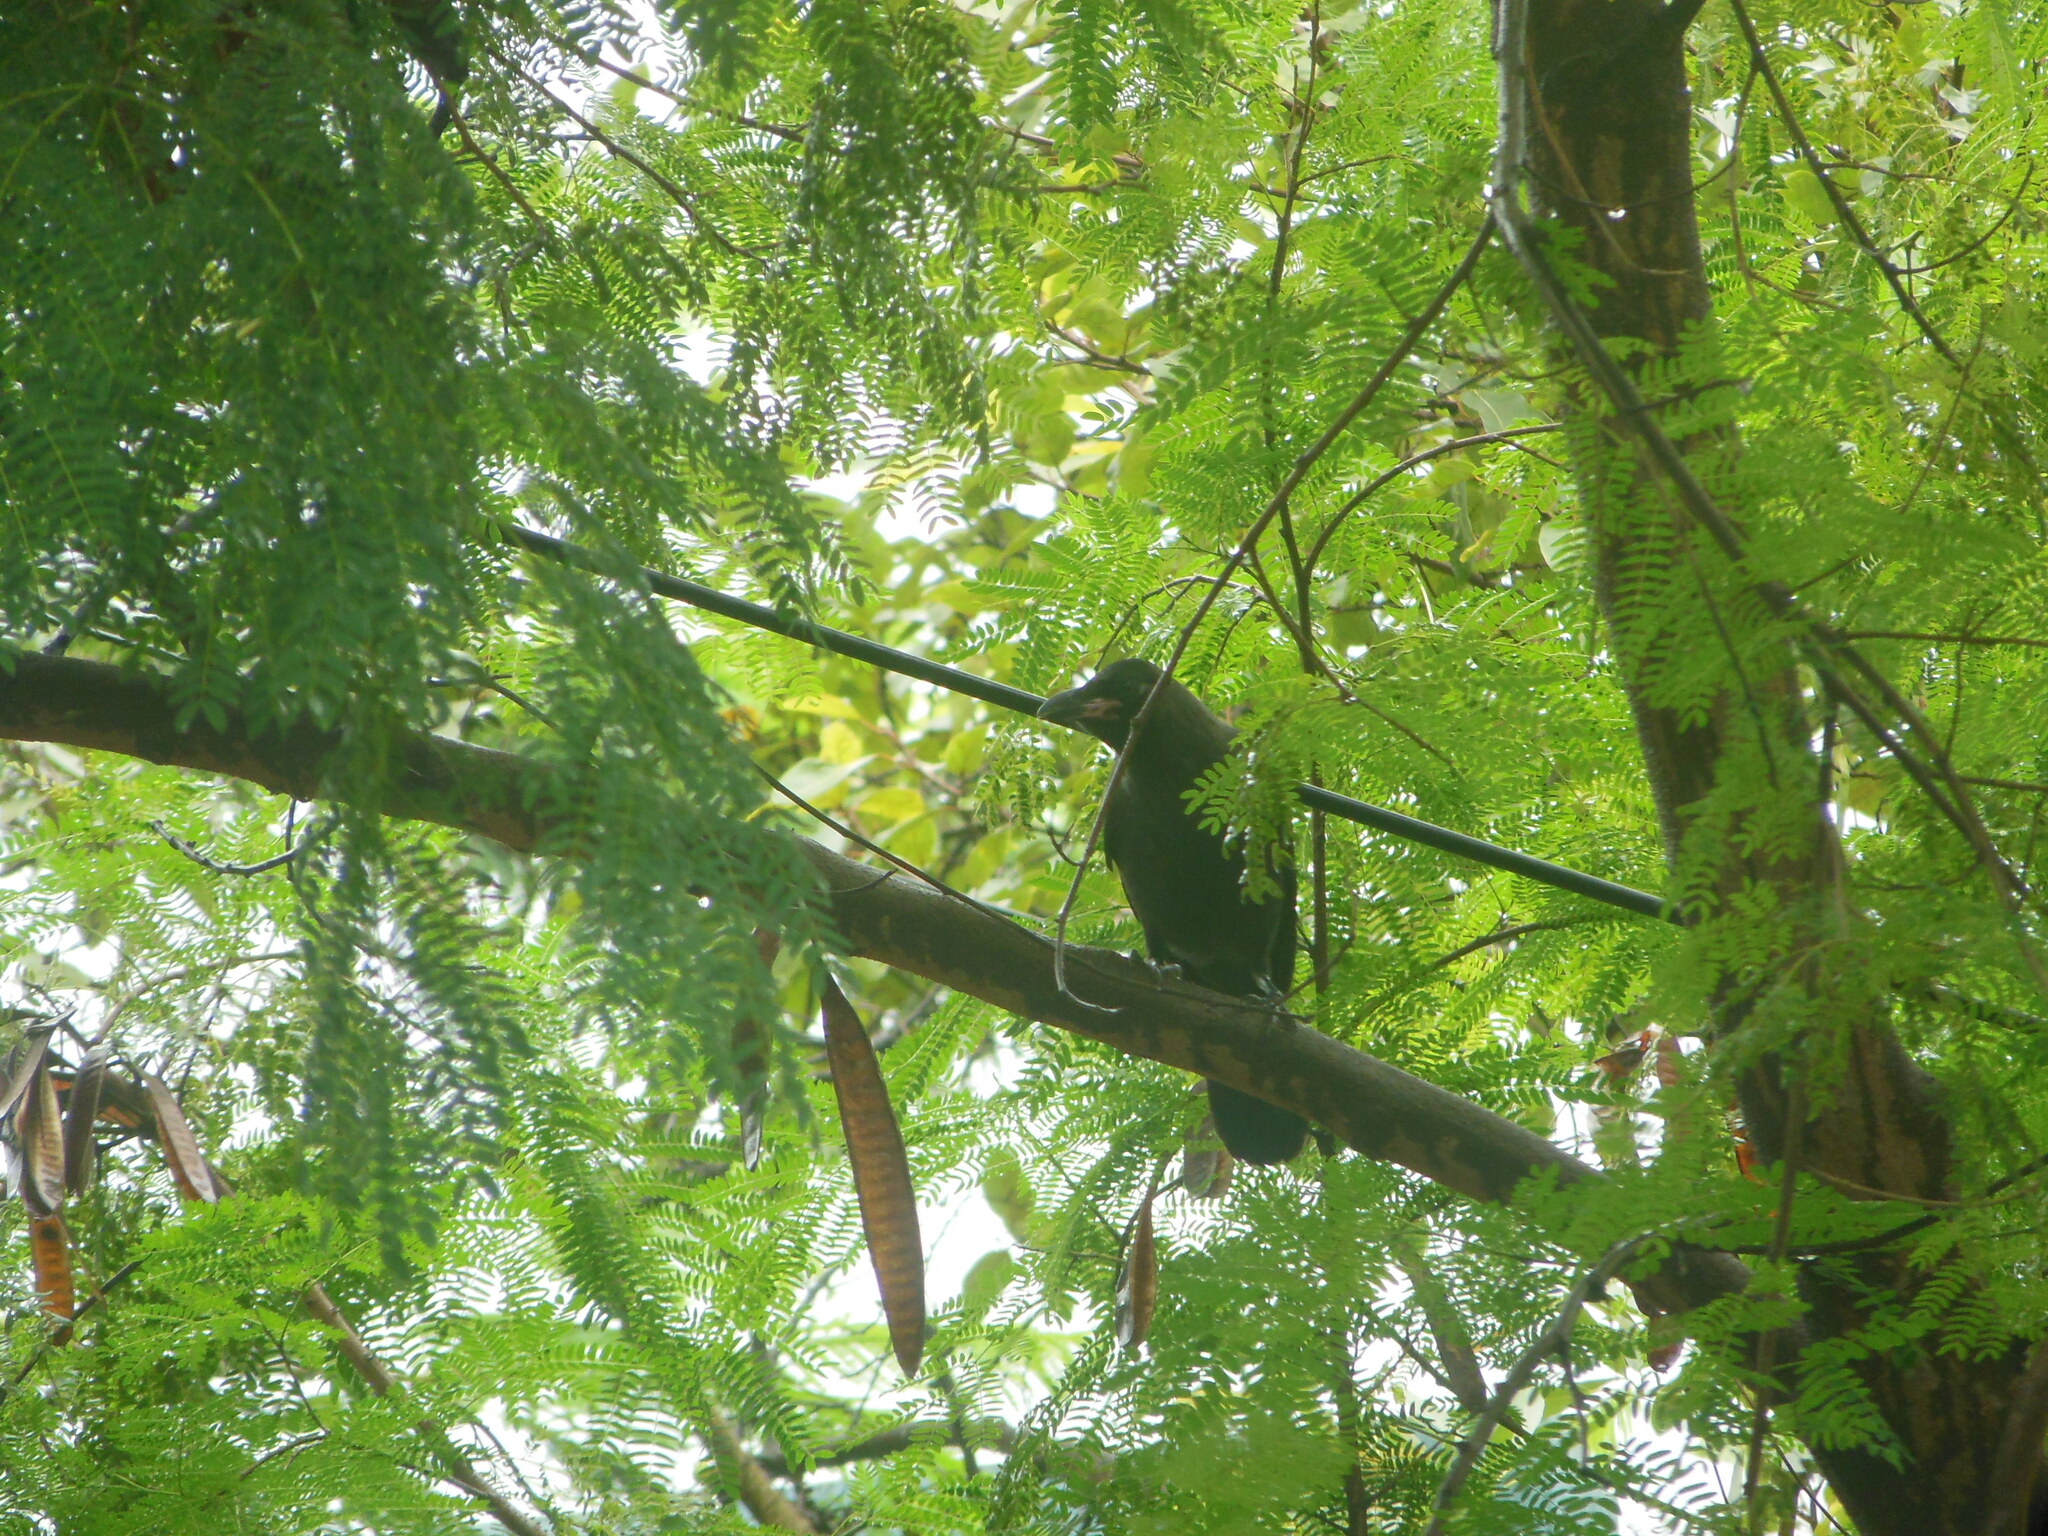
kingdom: Animalia
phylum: Chordata
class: Aves
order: Passeriformes
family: Corvidae
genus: Corvus
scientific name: Corvus splendens
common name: House crow
